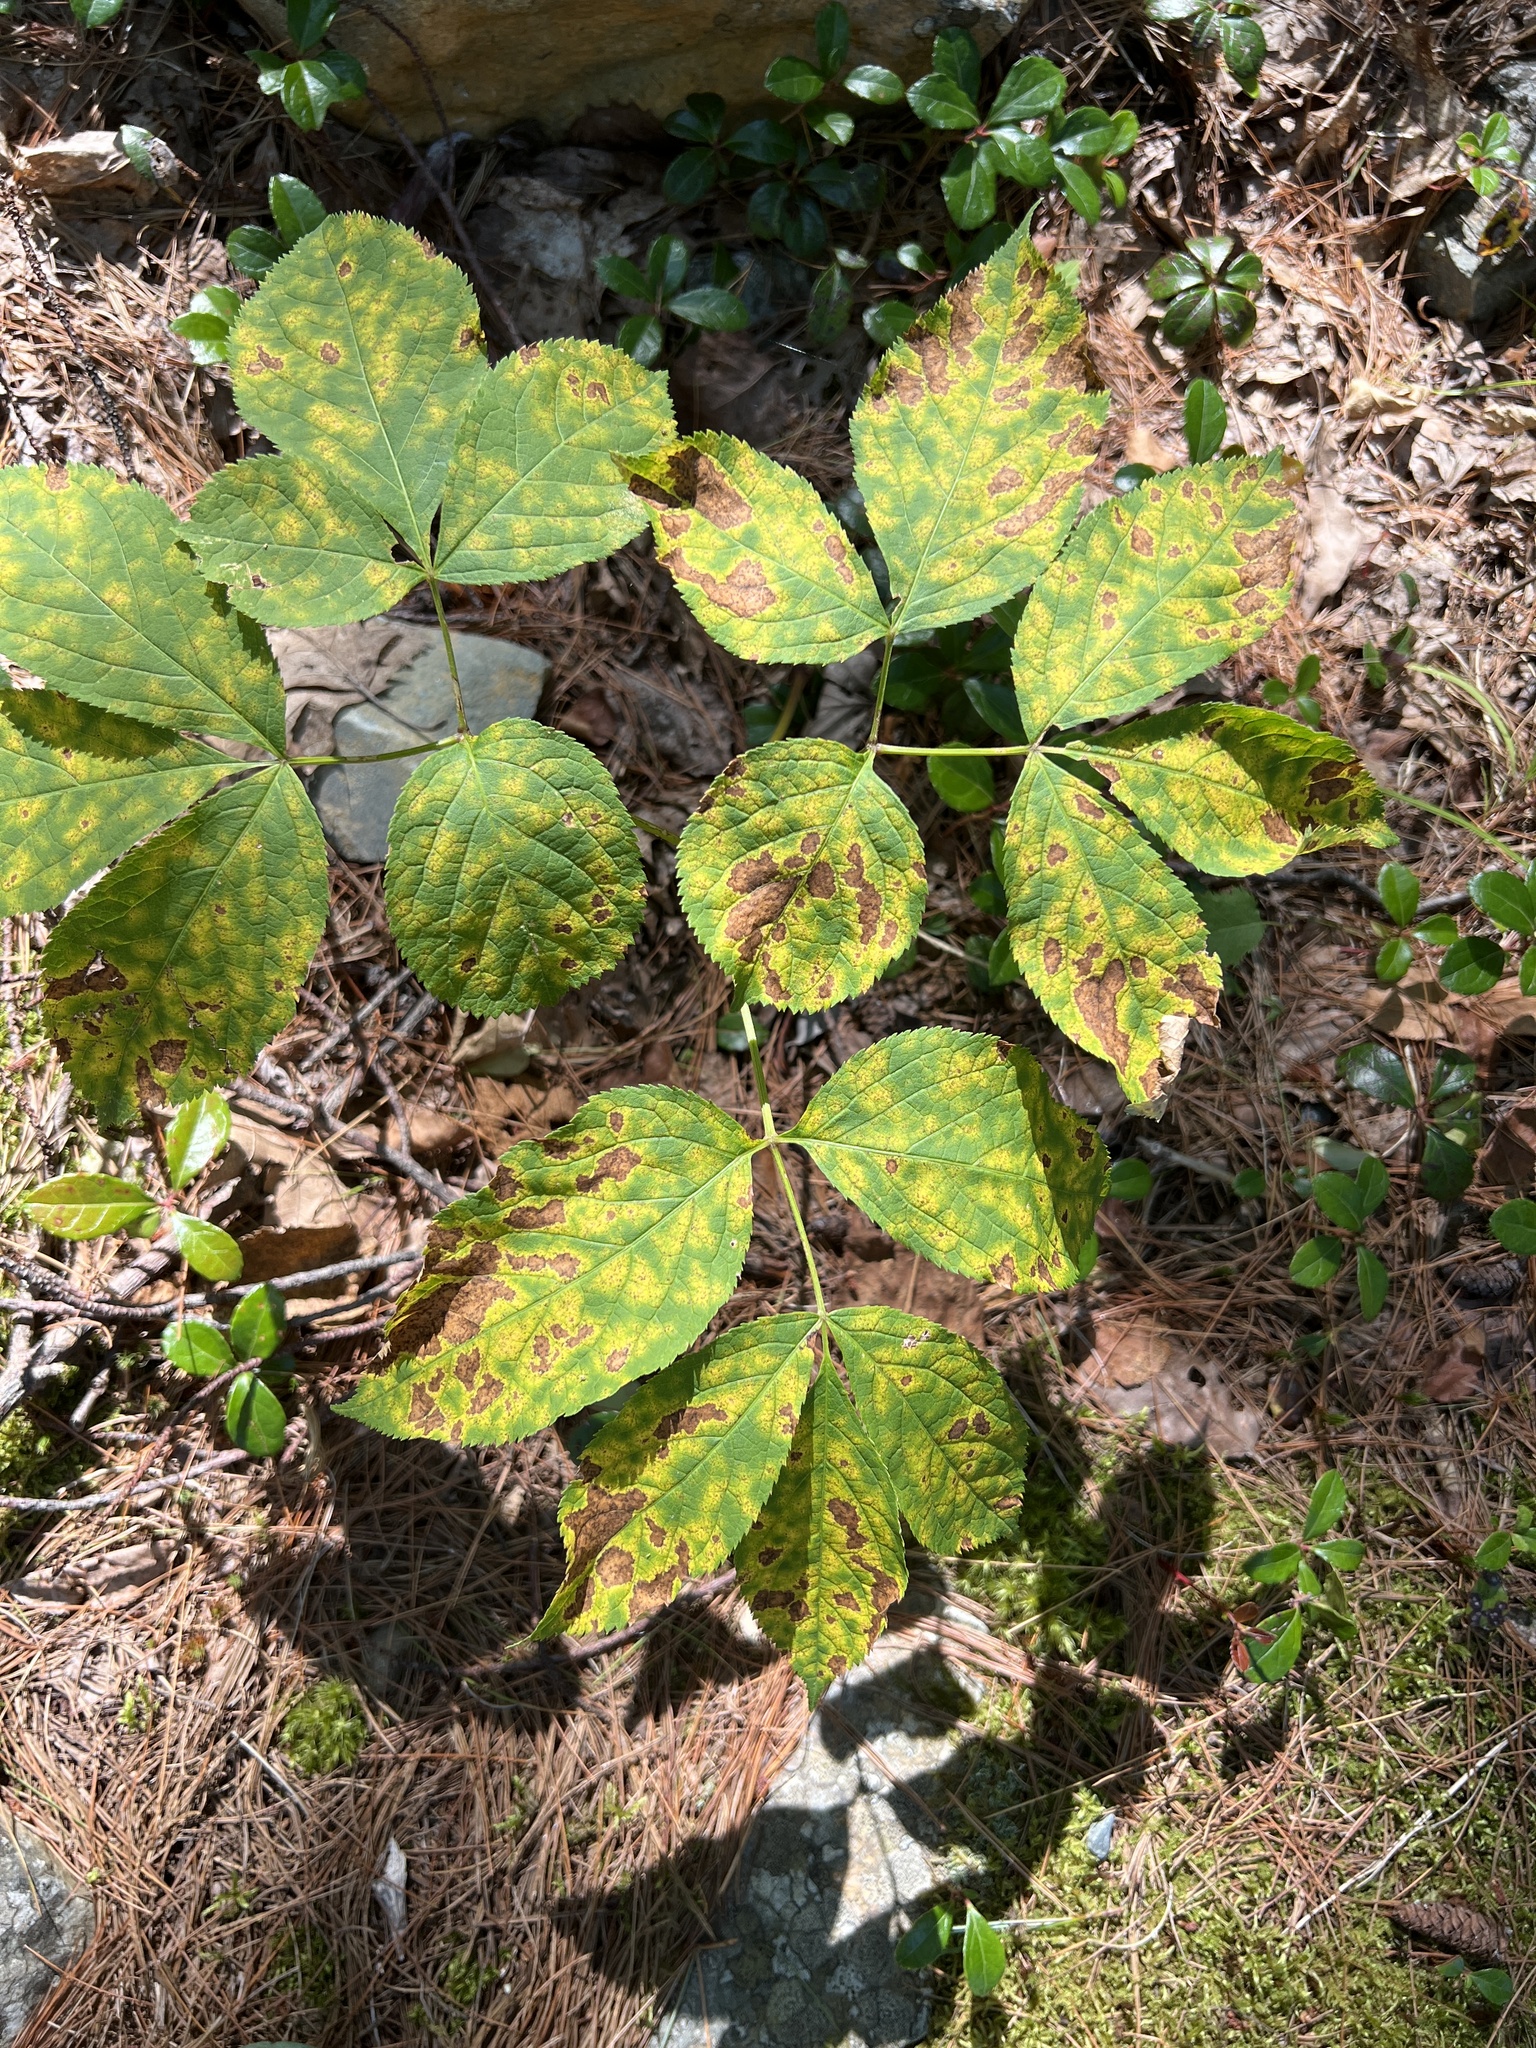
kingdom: Plantae
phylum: Tracheophyta
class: Magnoliopsida
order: Apiales
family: Araliaceae
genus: Aralia
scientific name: Aralia nudicaulis
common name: Wild sarsaparilla
